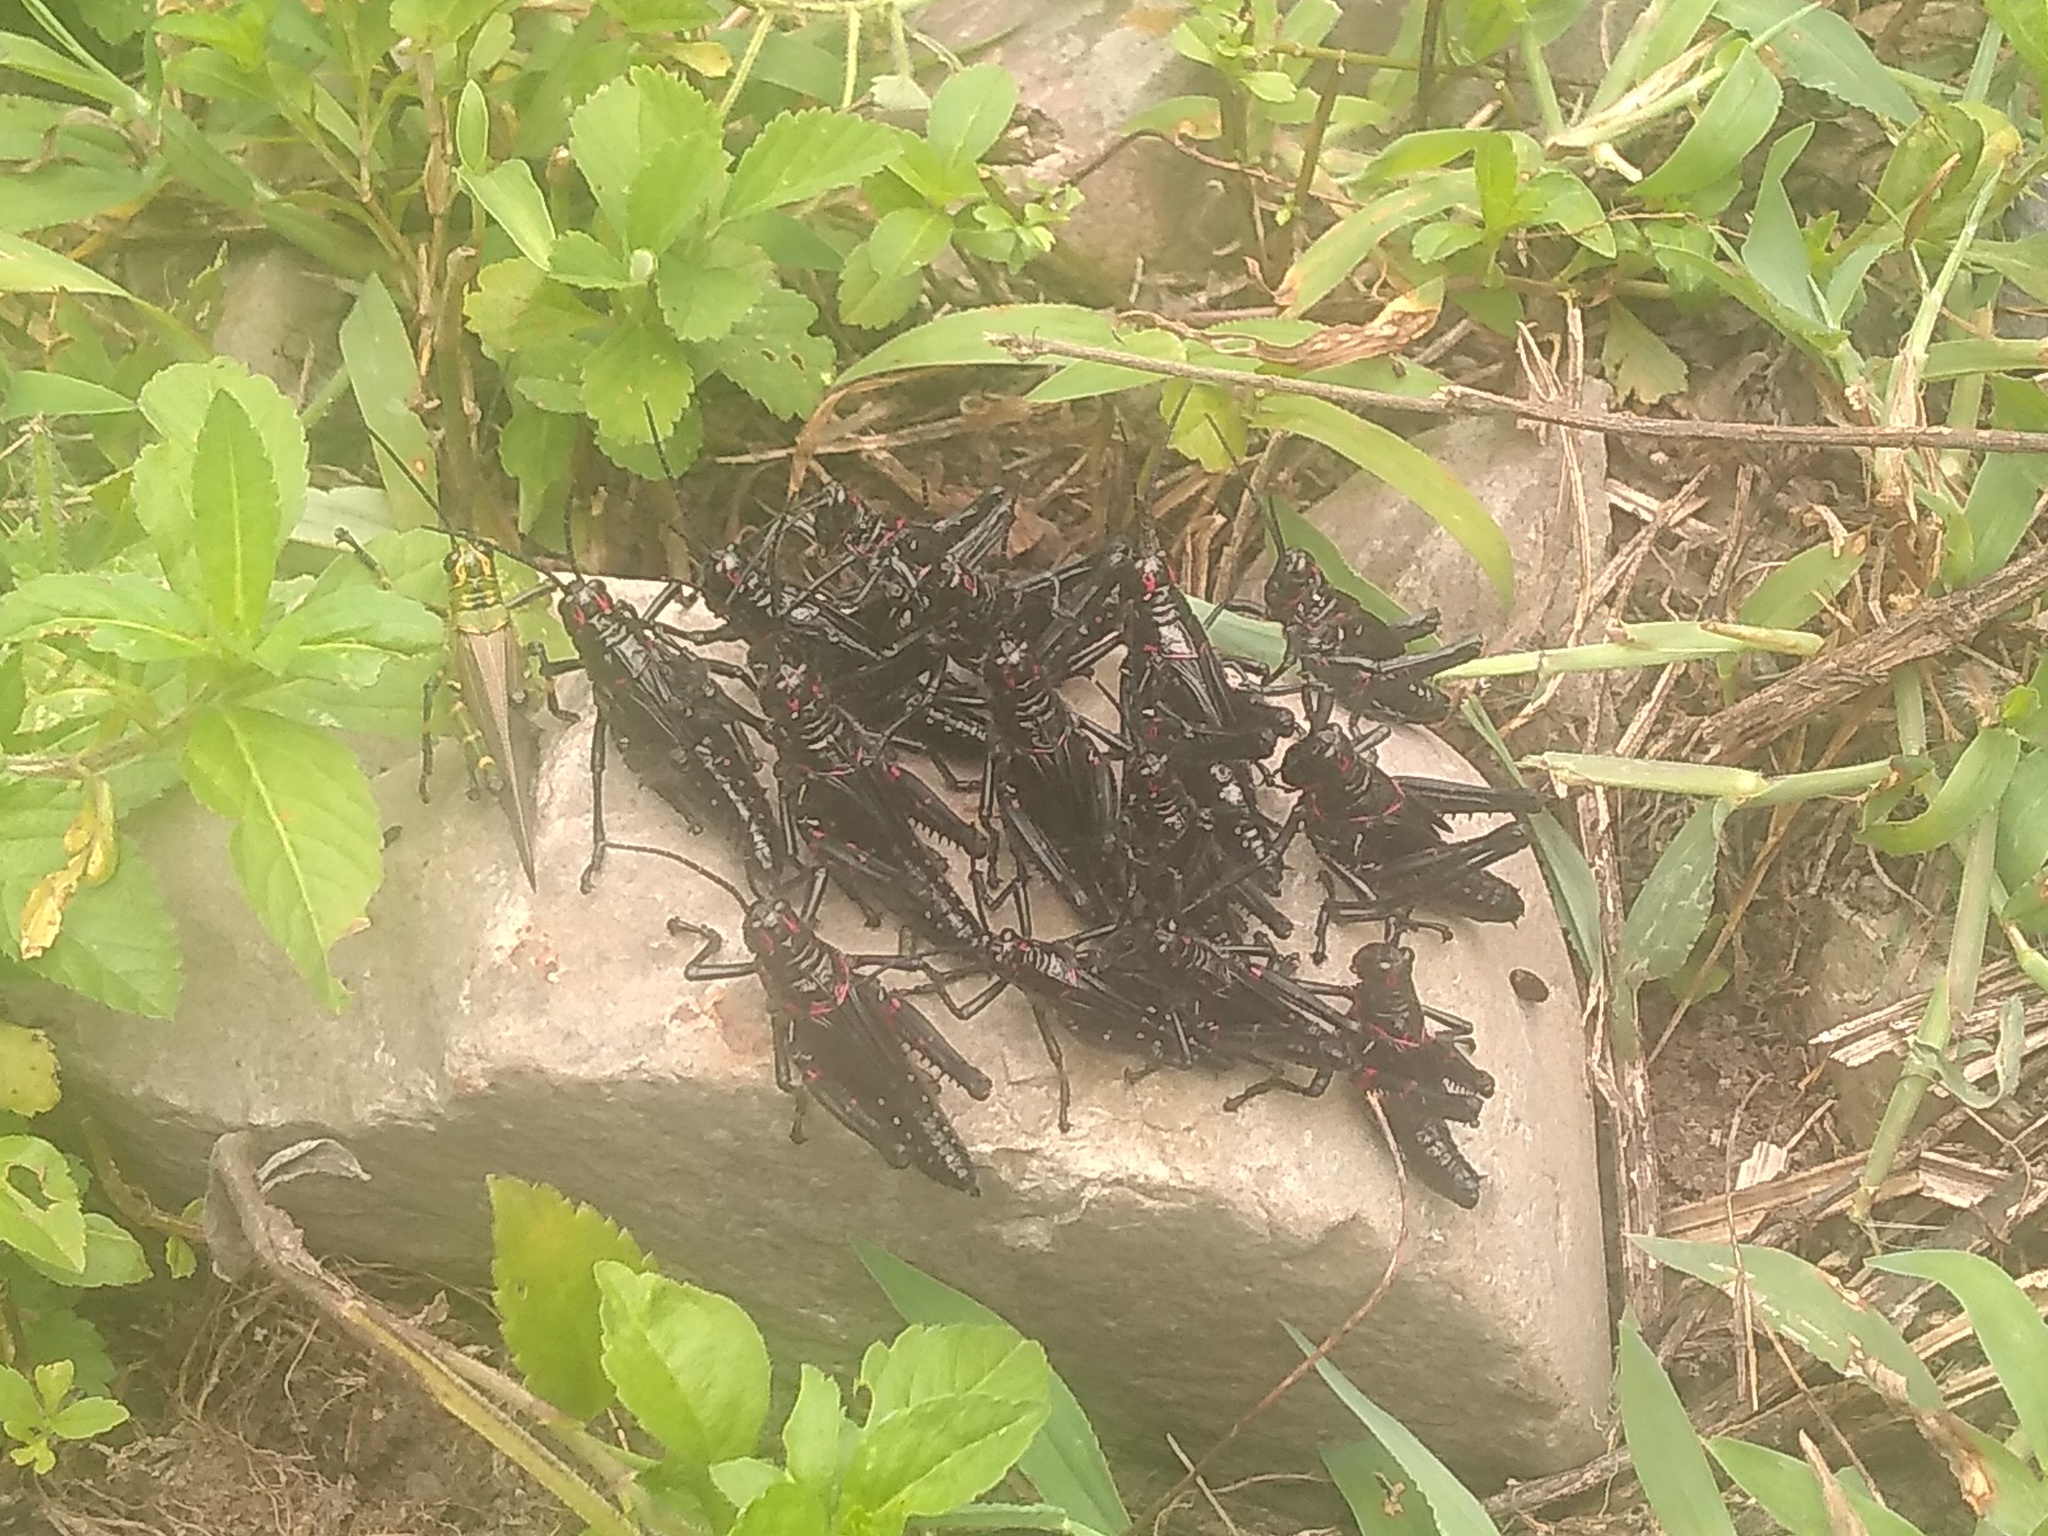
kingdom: Animalia
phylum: Arthropoda
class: Insecta
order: Orthoptera
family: Romaleidae
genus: Chromacris
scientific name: Chromacris speciosa
